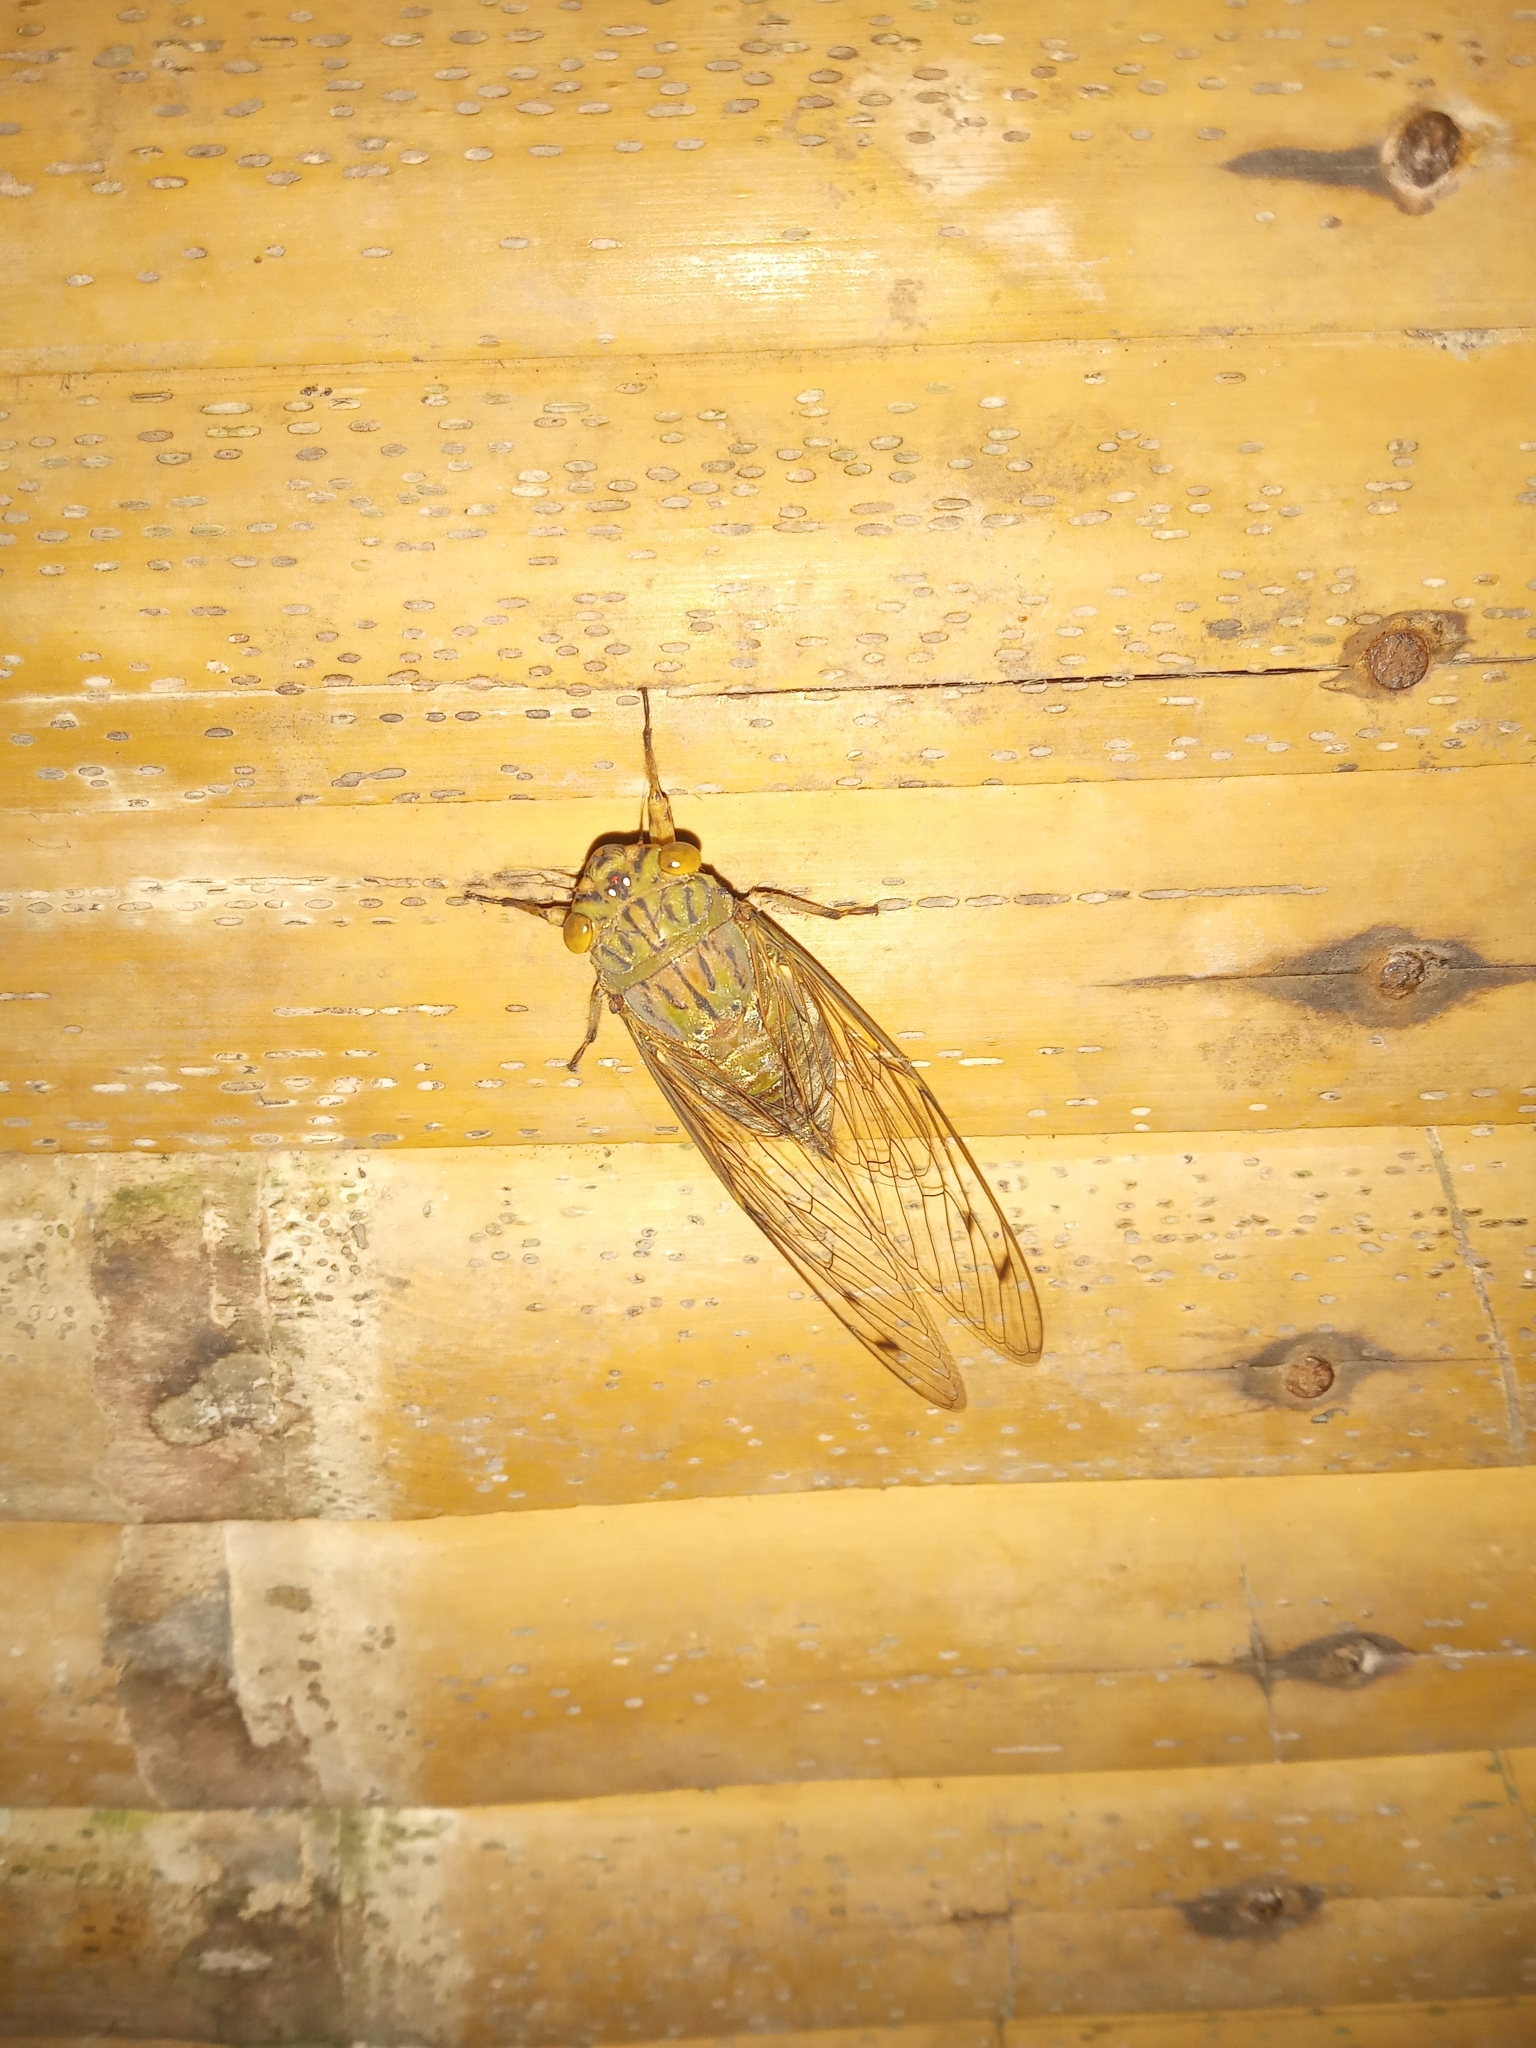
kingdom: Animalia
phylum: Arthropoda
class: Insecta
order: Hemiptera
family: Cicadidae
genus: Orientopsaltria
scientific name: Orientopsaltria fuliginosa
